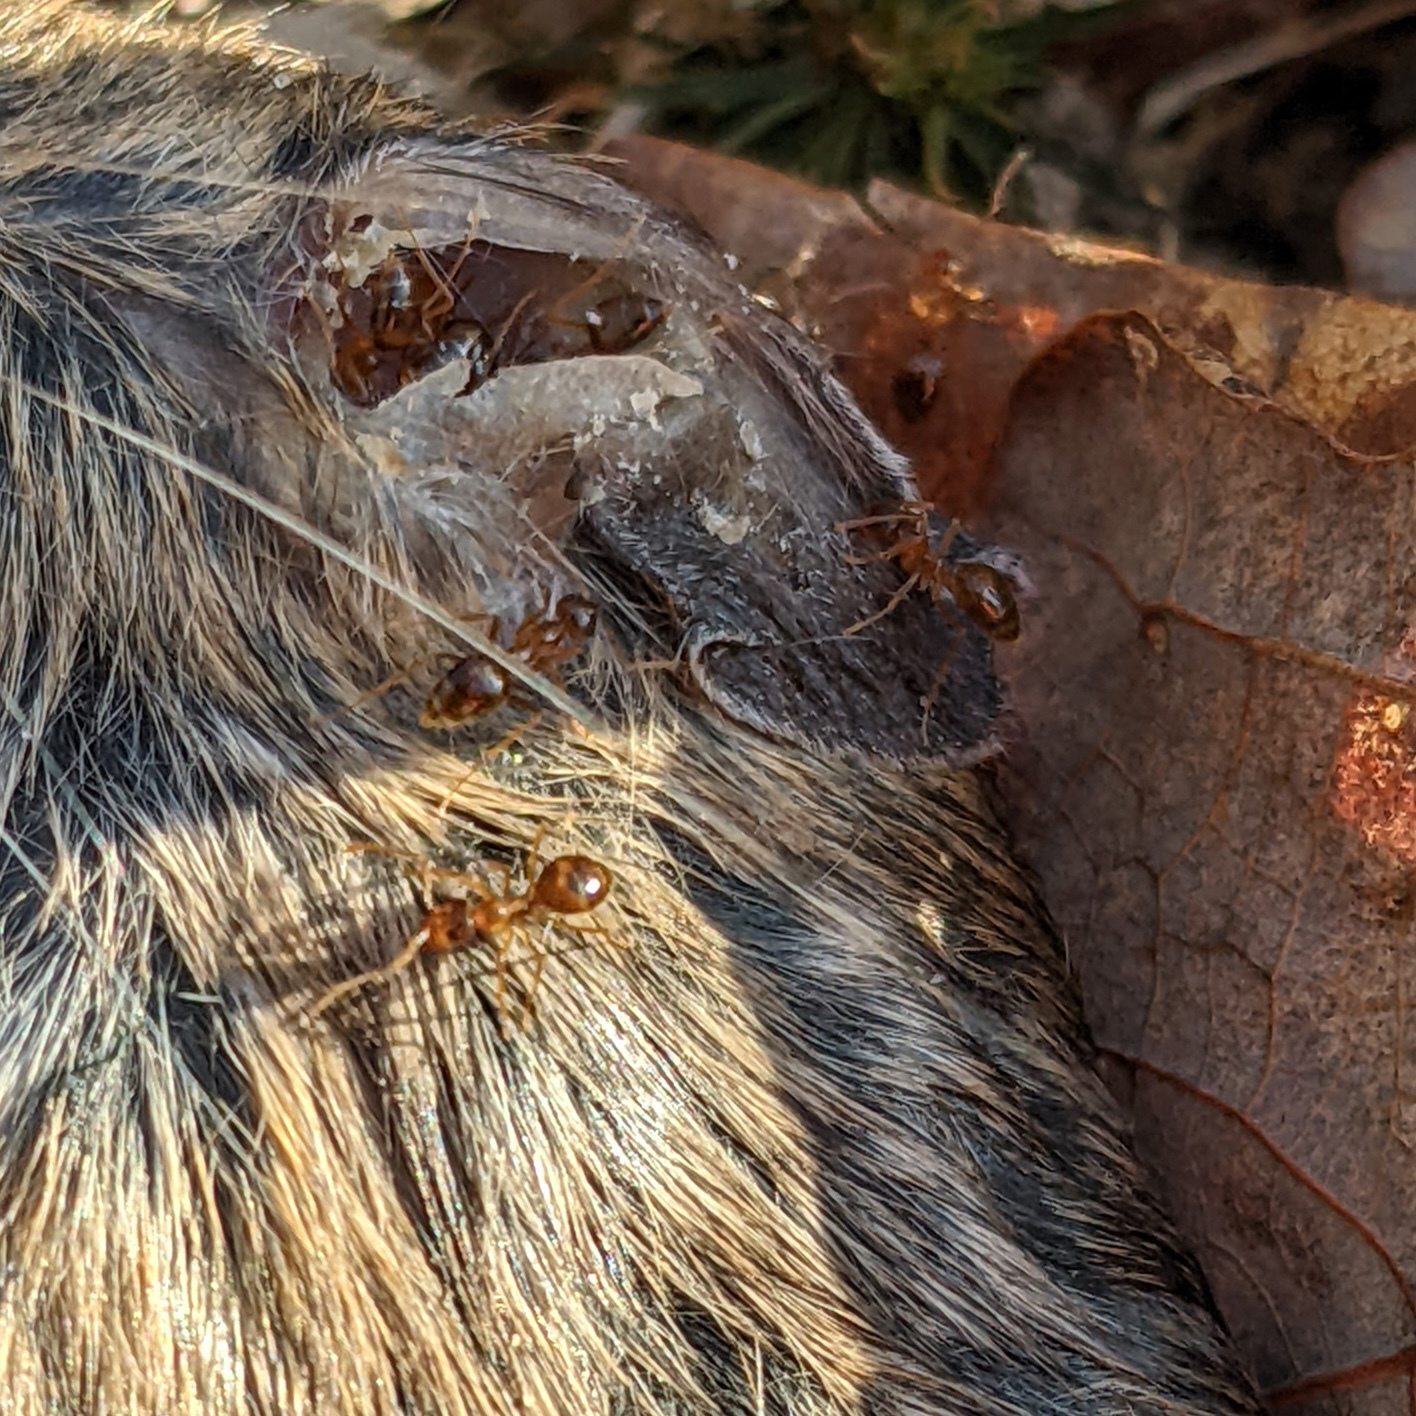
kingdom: Animalia
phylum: Arthropoda
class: Insecta
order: Hymenoptera
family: Formicidae
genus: Prenolepis
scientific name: Prenolepis imparis
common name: Small honey ant
